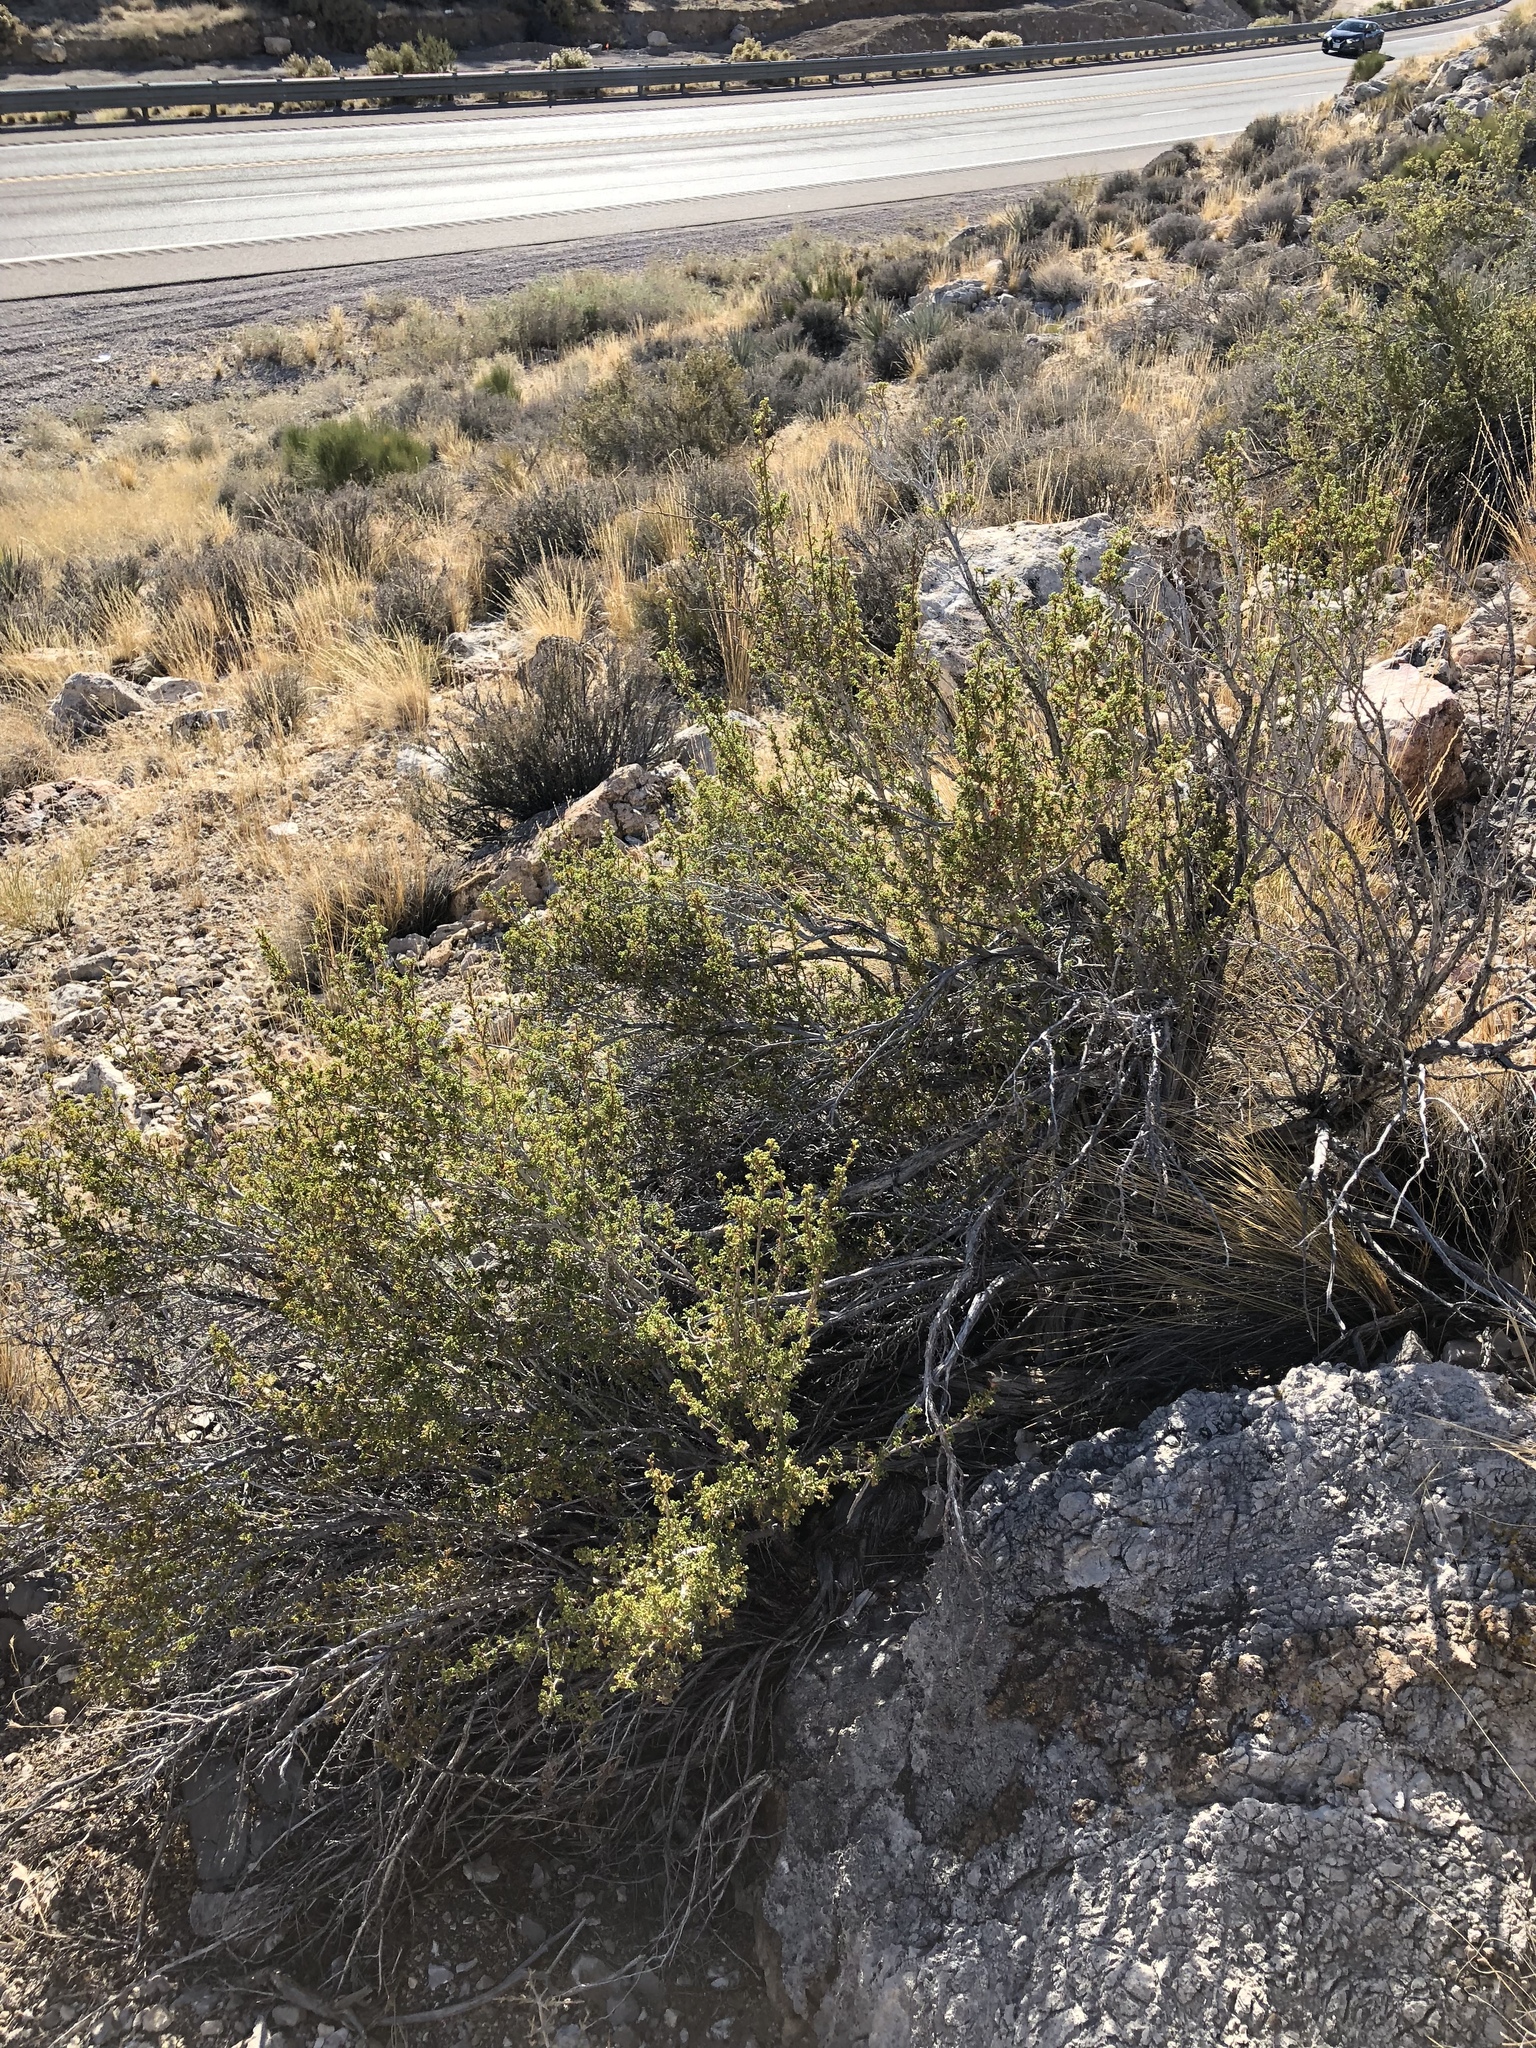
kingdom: Plantae
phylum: Tracheophyta
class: Magnoliopsida
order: Rosales
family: Rosaceae
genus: Purshia
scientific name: Purshia stansburiana
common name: Stansbury's cliffrose
